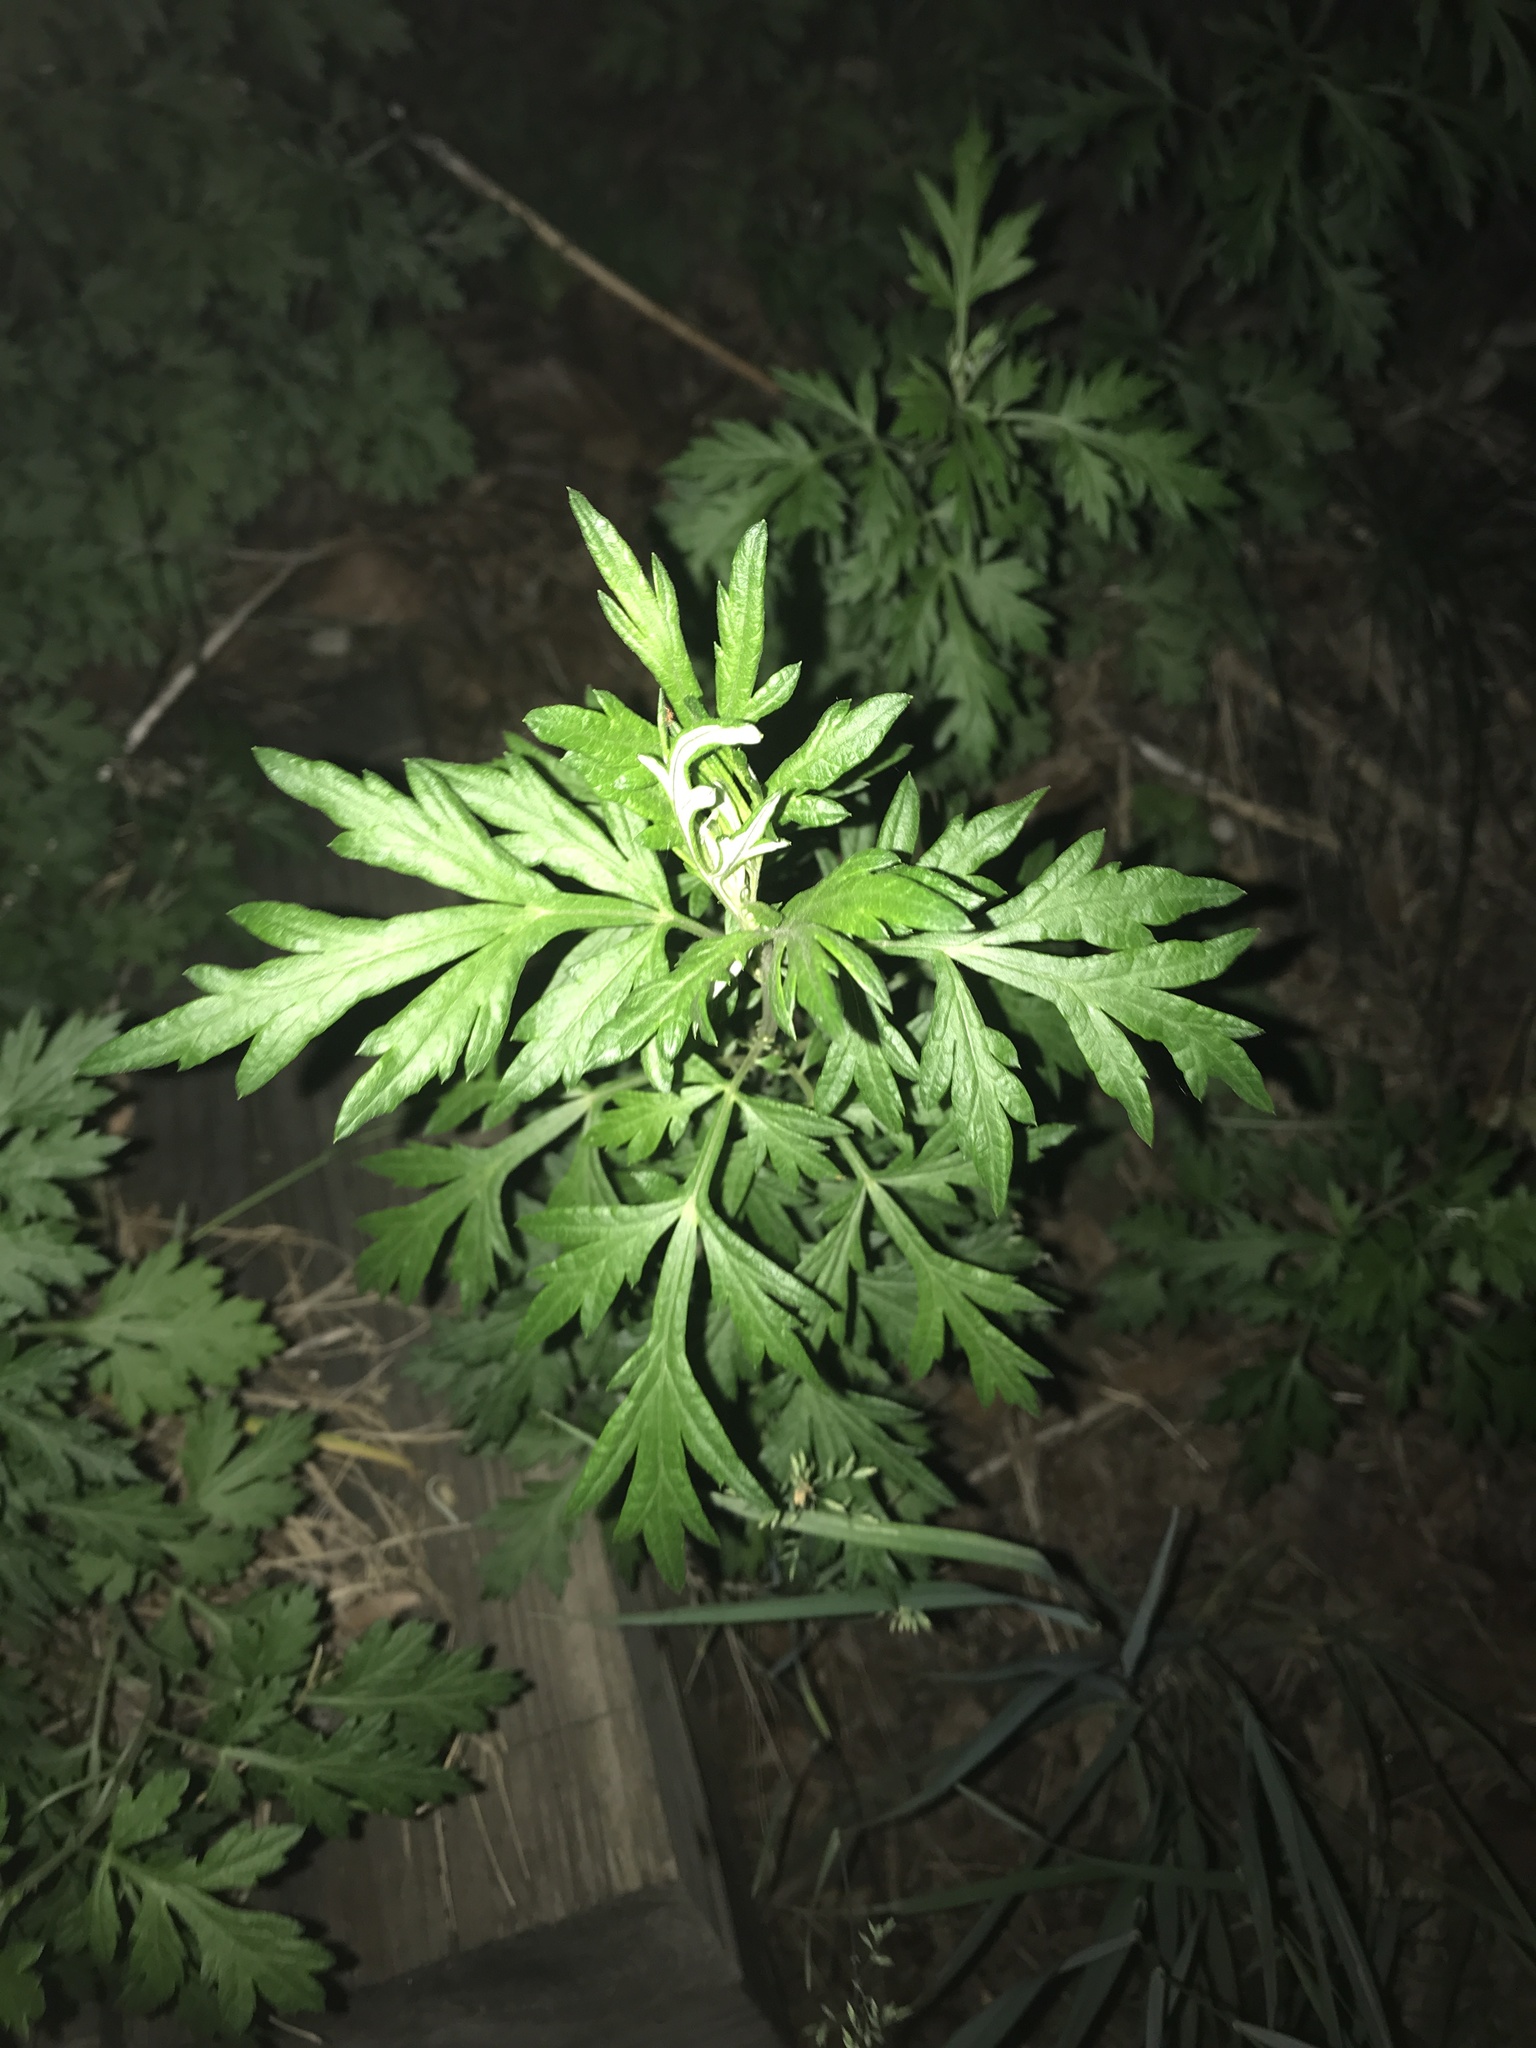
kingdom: Plantae
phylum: Tracheophyta
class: Magnoliopsida
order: Asterales
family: Asteraceae
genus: Artemisia
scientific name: Artemisia vulgaris
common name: Mugwort
